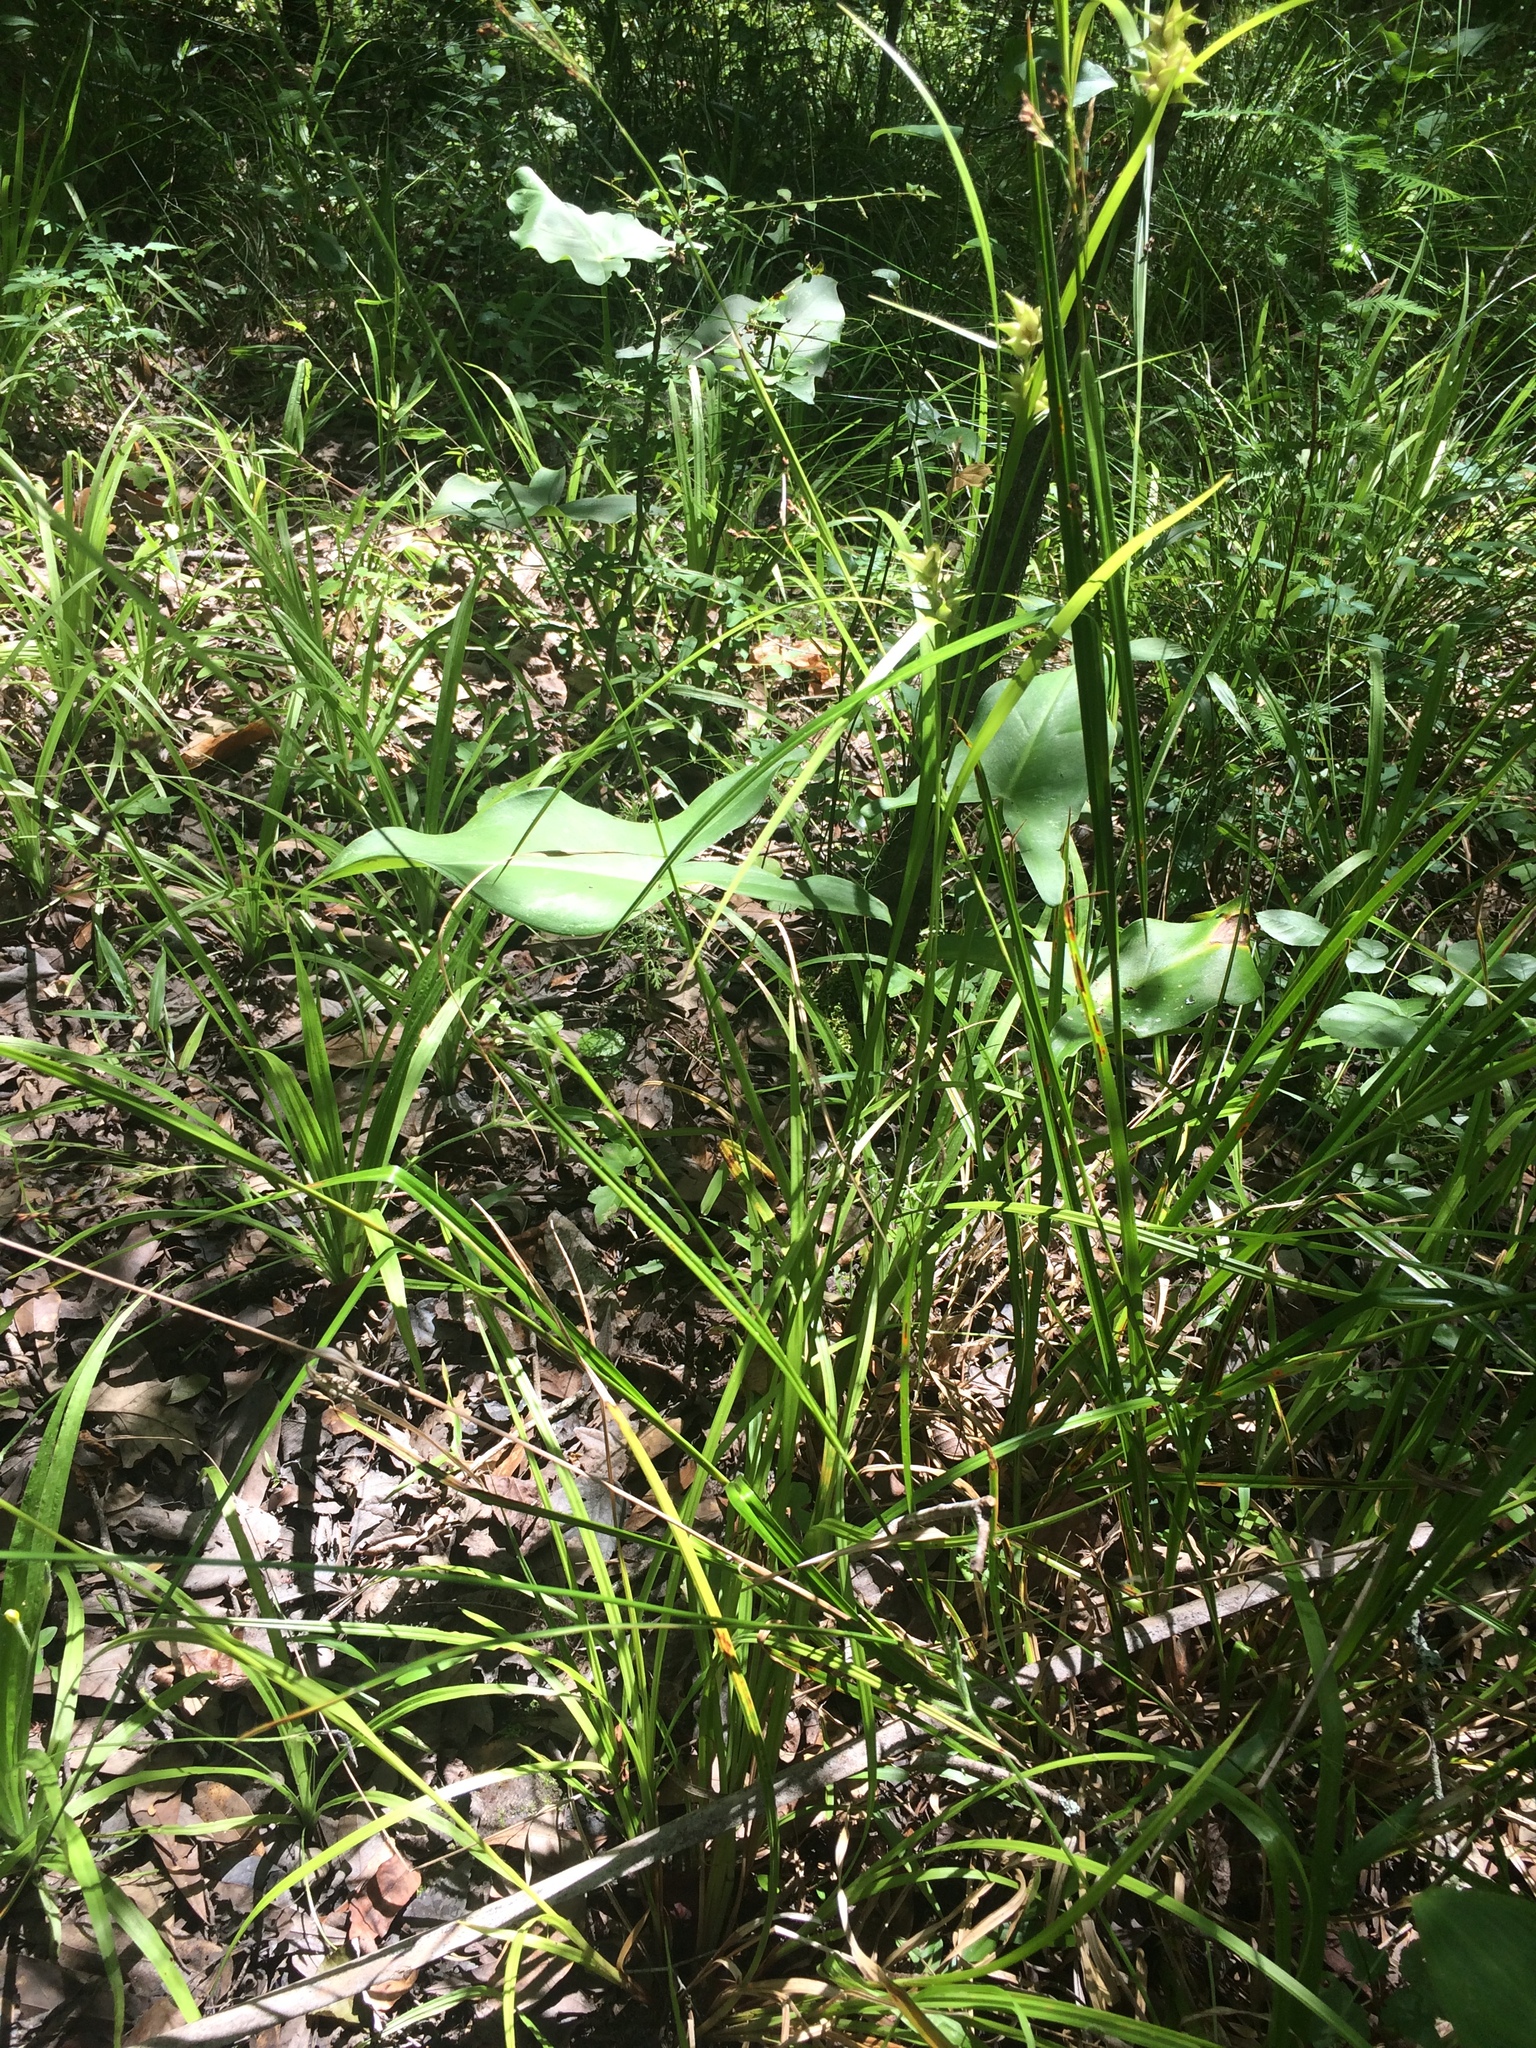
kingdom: Plantae
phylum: Tracheophyta
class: Liliopsida
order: Poales
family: Cyperaceae
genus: Carex
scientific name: Carex intumescens
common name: Greater bladder sedge
